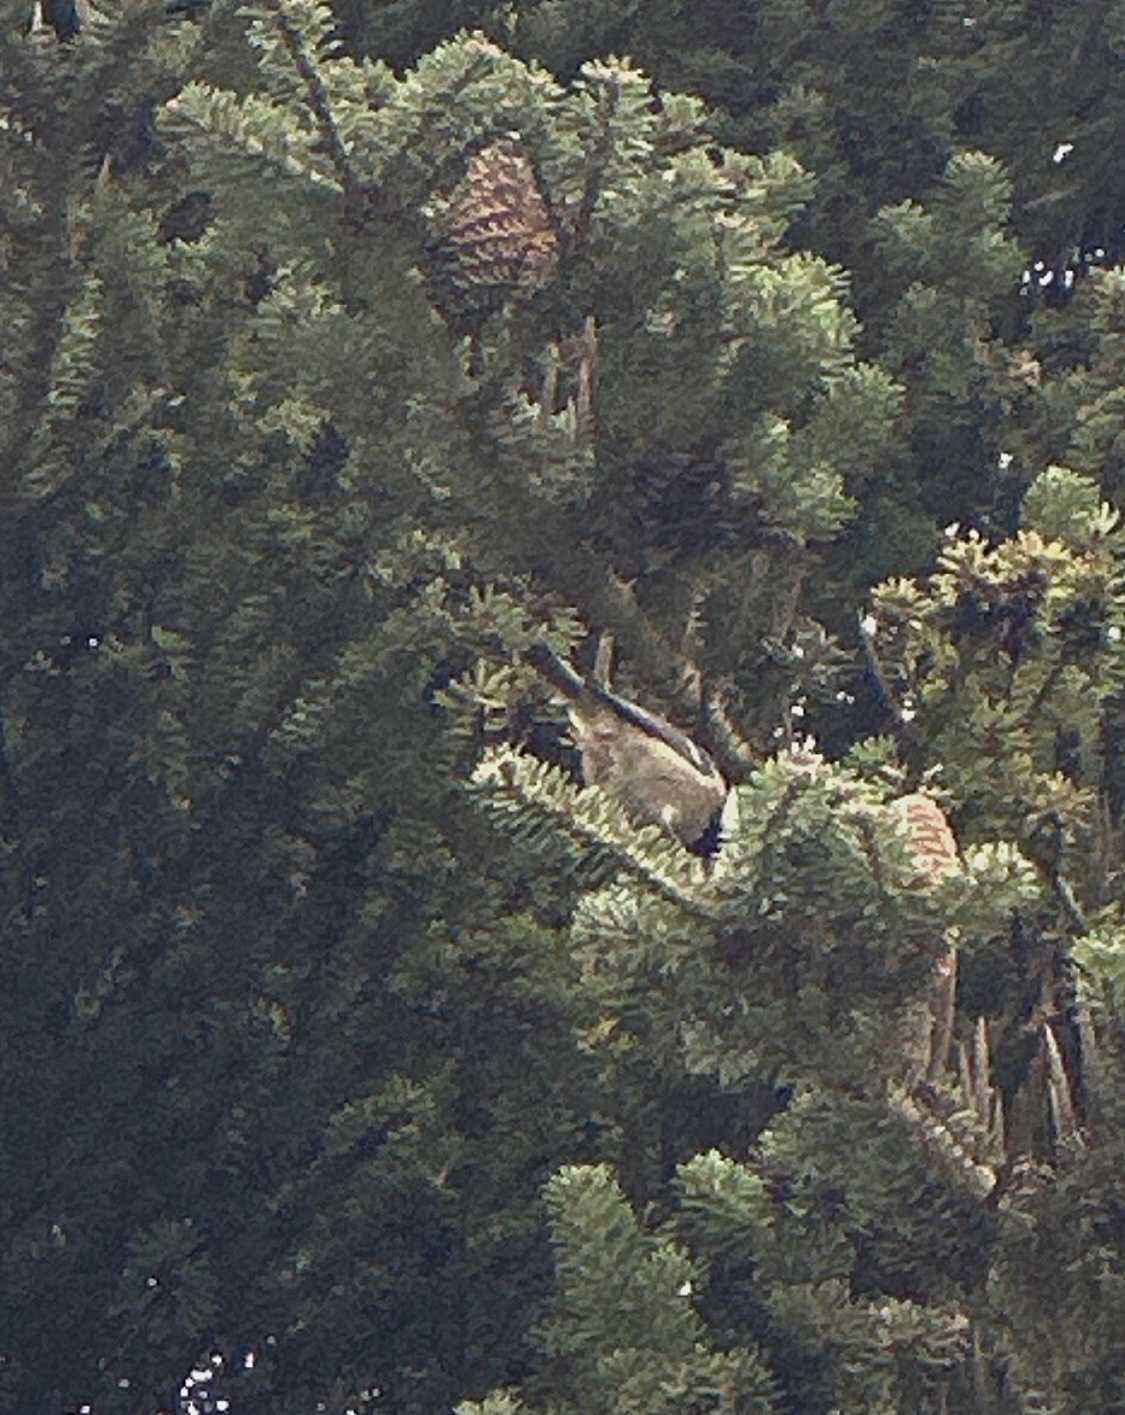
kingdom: Animalia
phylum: Chordata
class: Aves
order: Passeriformes
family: Paridae
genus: Parus
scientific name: Parus major
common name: Great tit
